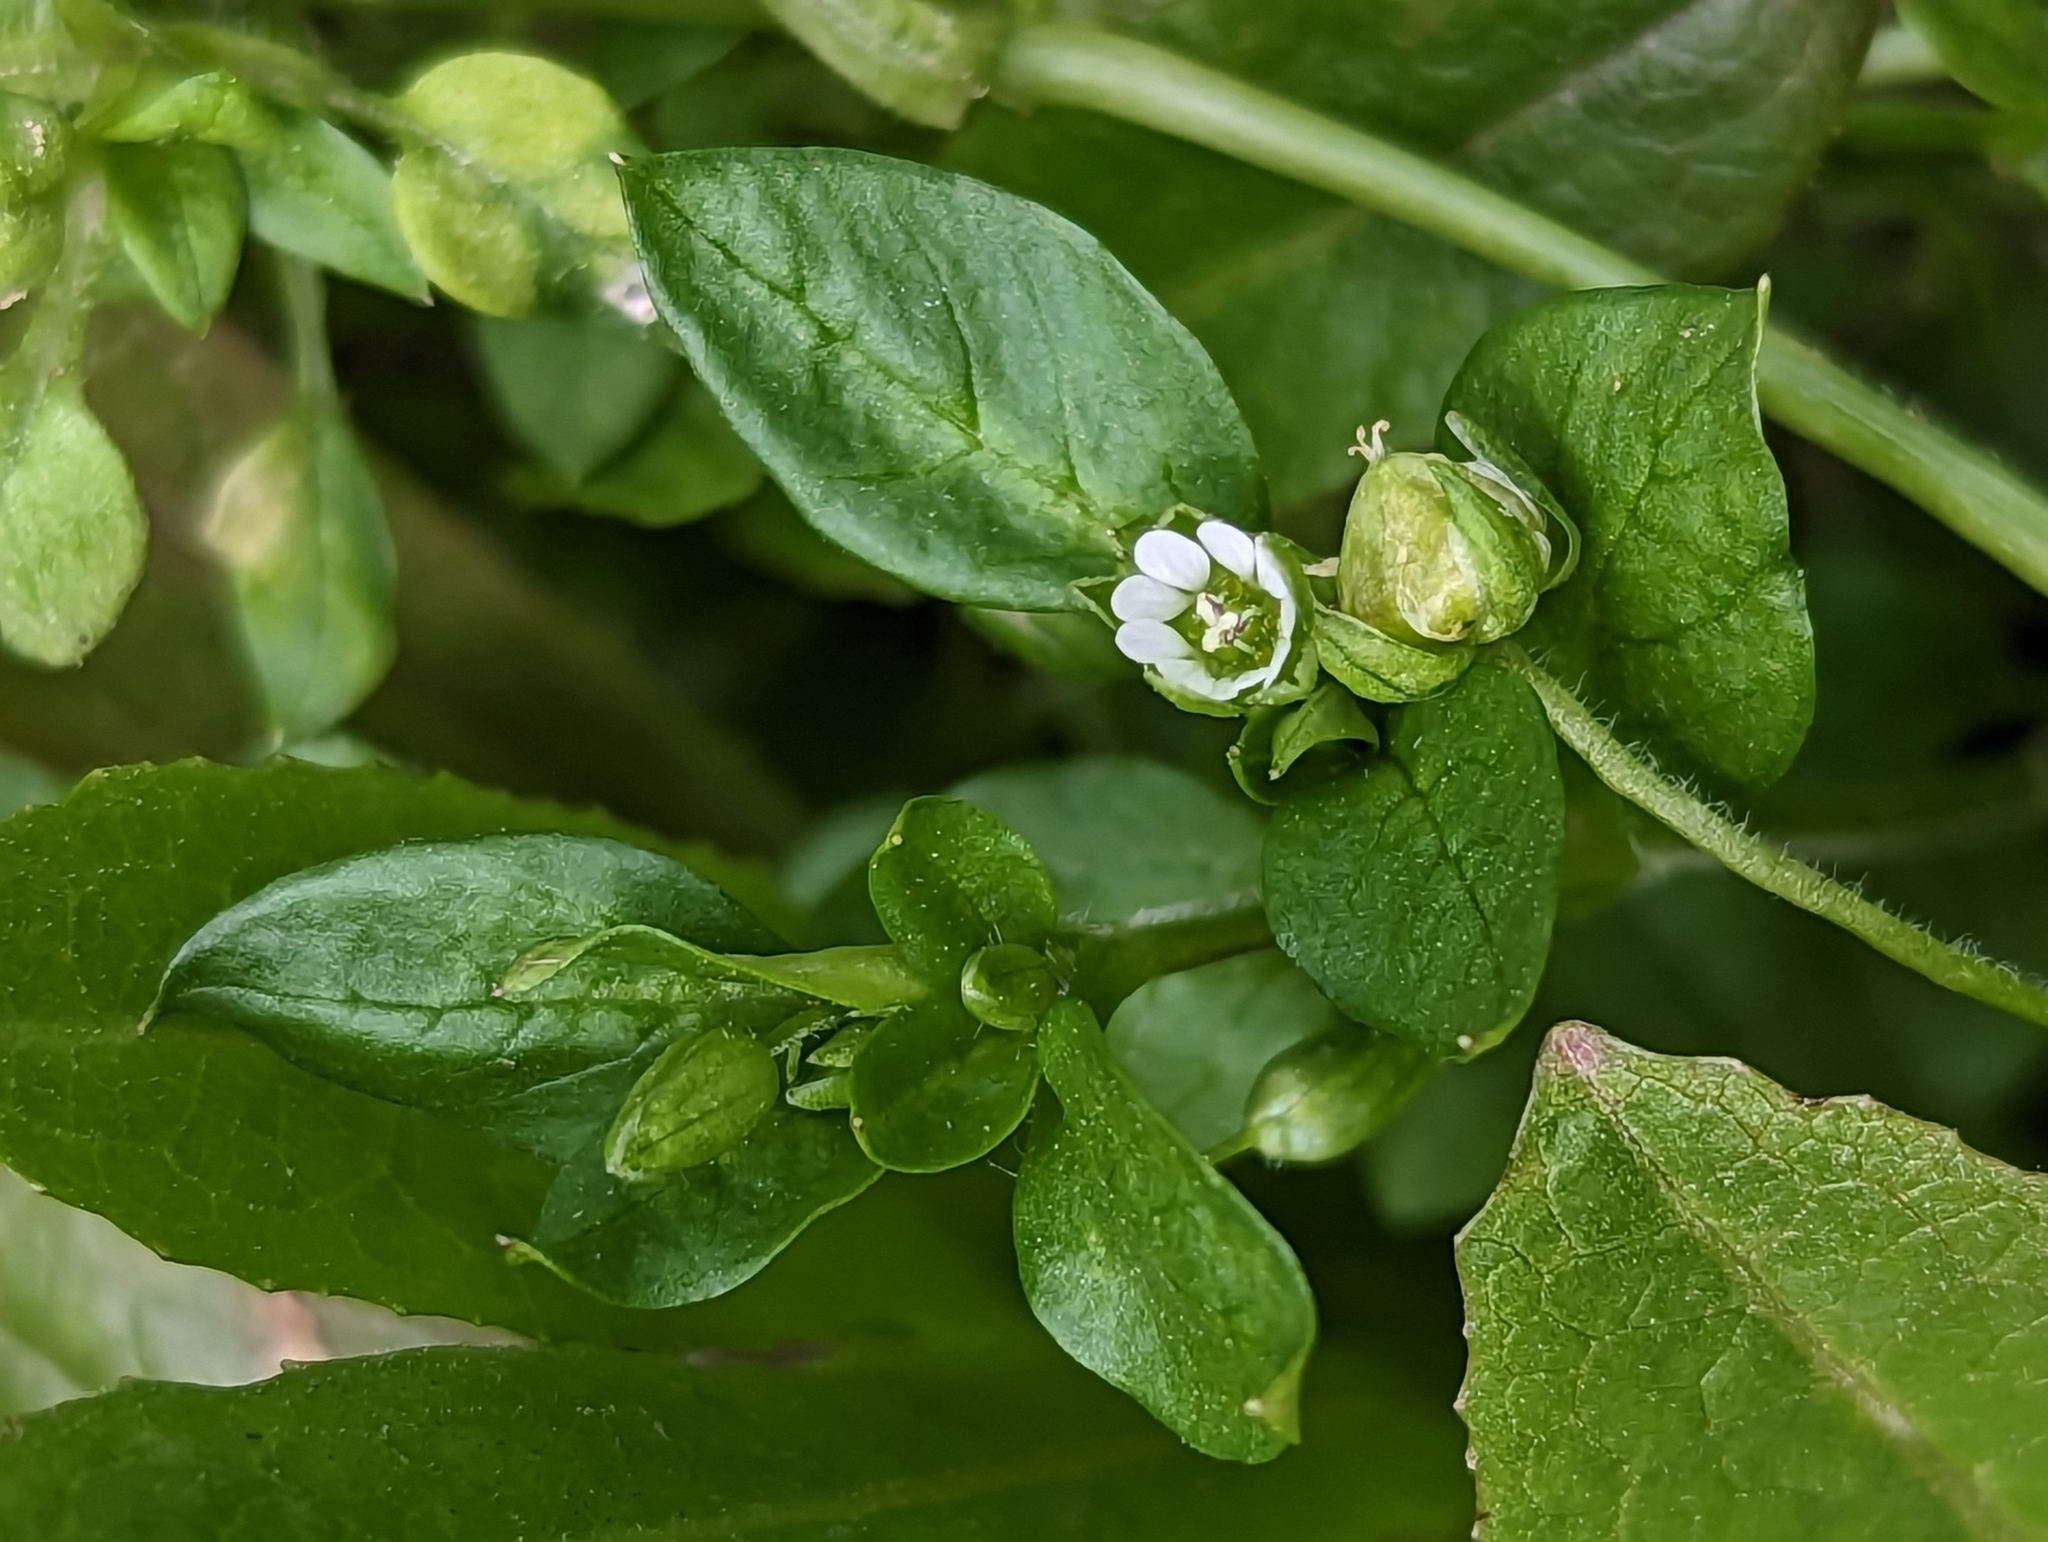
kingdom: Plantae
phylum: Tracheophyta
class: Magnoliopsida
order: Caryophyllales
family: Caryophyllaceae
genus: Stellaria
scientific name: Stellaria media
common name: Common chickweed
